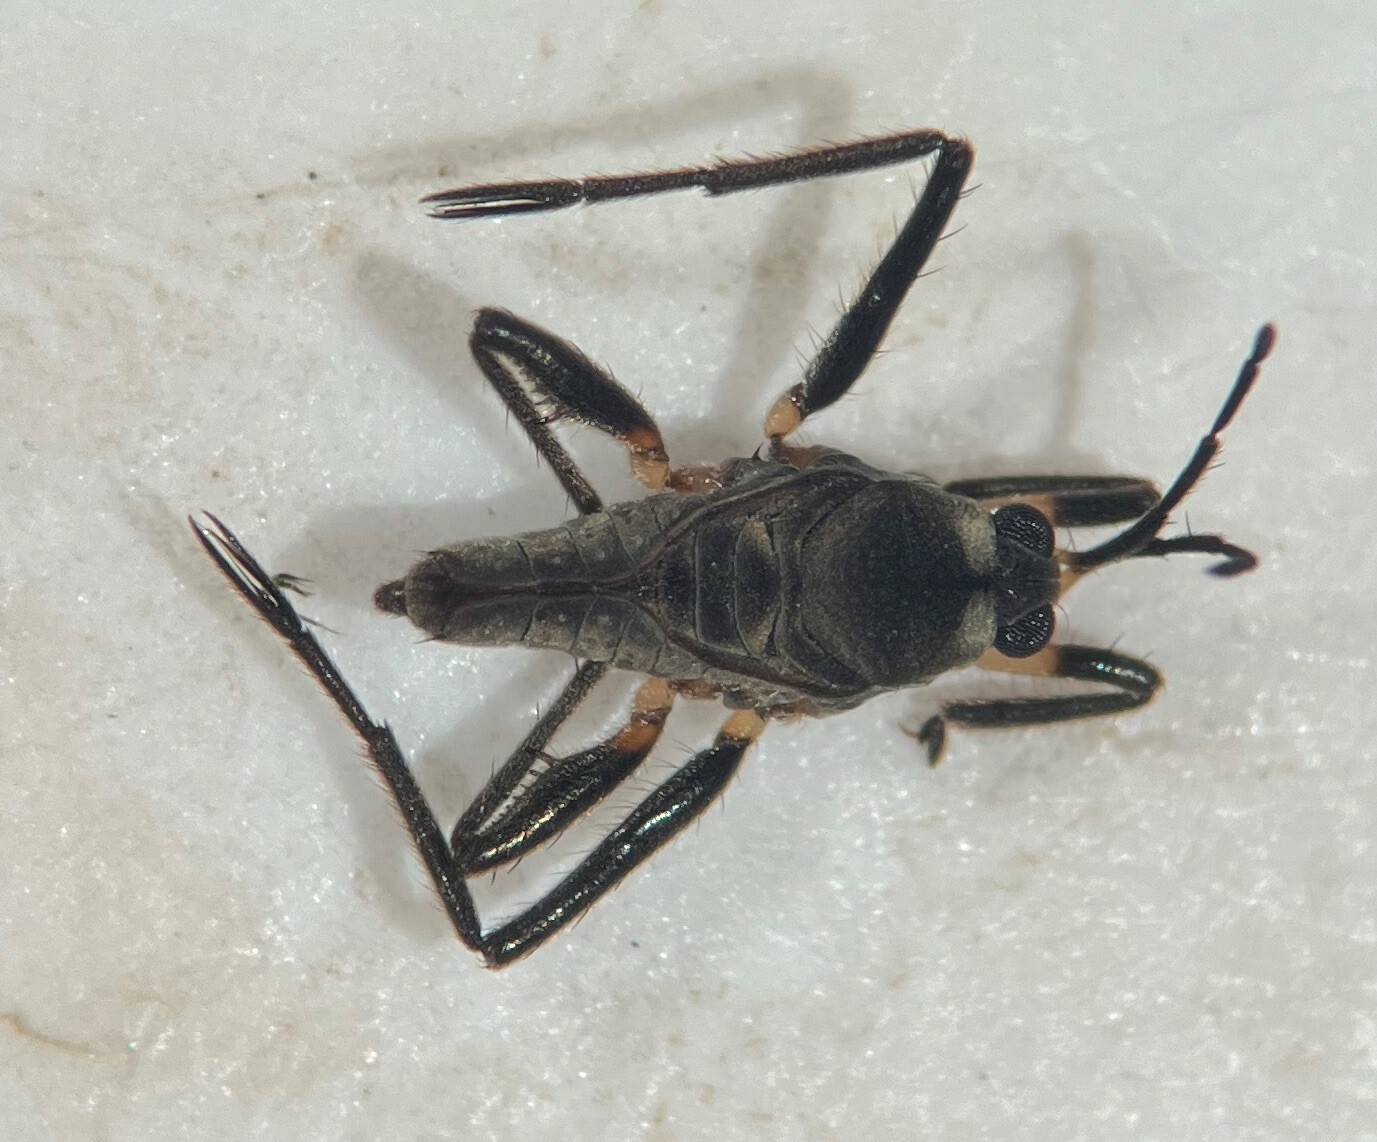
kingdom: Animalia
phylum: Arthropoda
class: Insecta
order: Hemiptera
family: Veliidae
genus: Rhagovelia
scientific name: Rhagovelia choreutes
